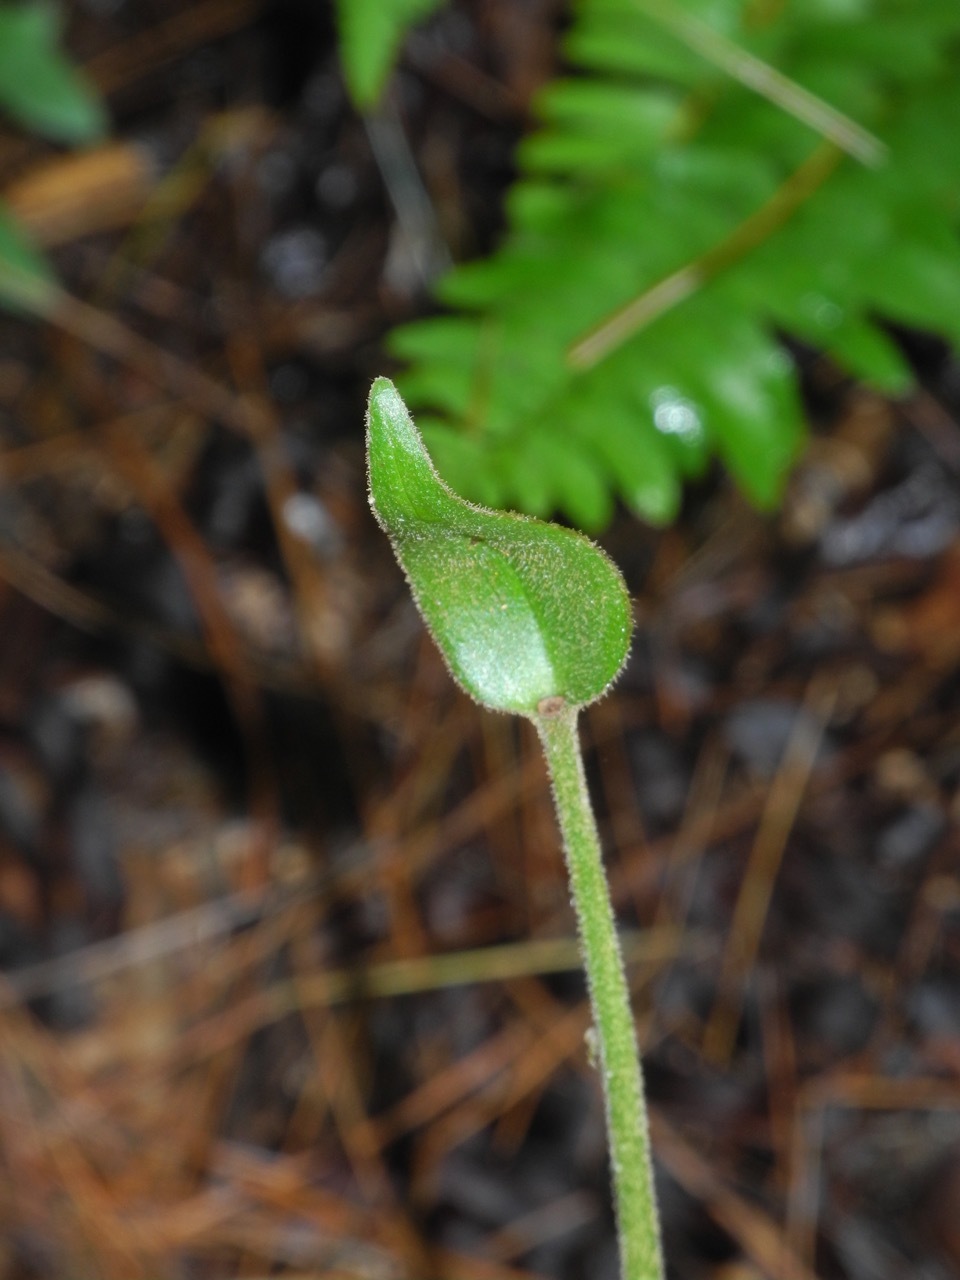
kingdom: Plantae
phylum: Tracheophyta
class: Liliopsida
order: Asparagales
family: Orchidaceae
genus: Cypripedium
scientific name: Cypripedium acaule
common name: Pink lady's-slipper
